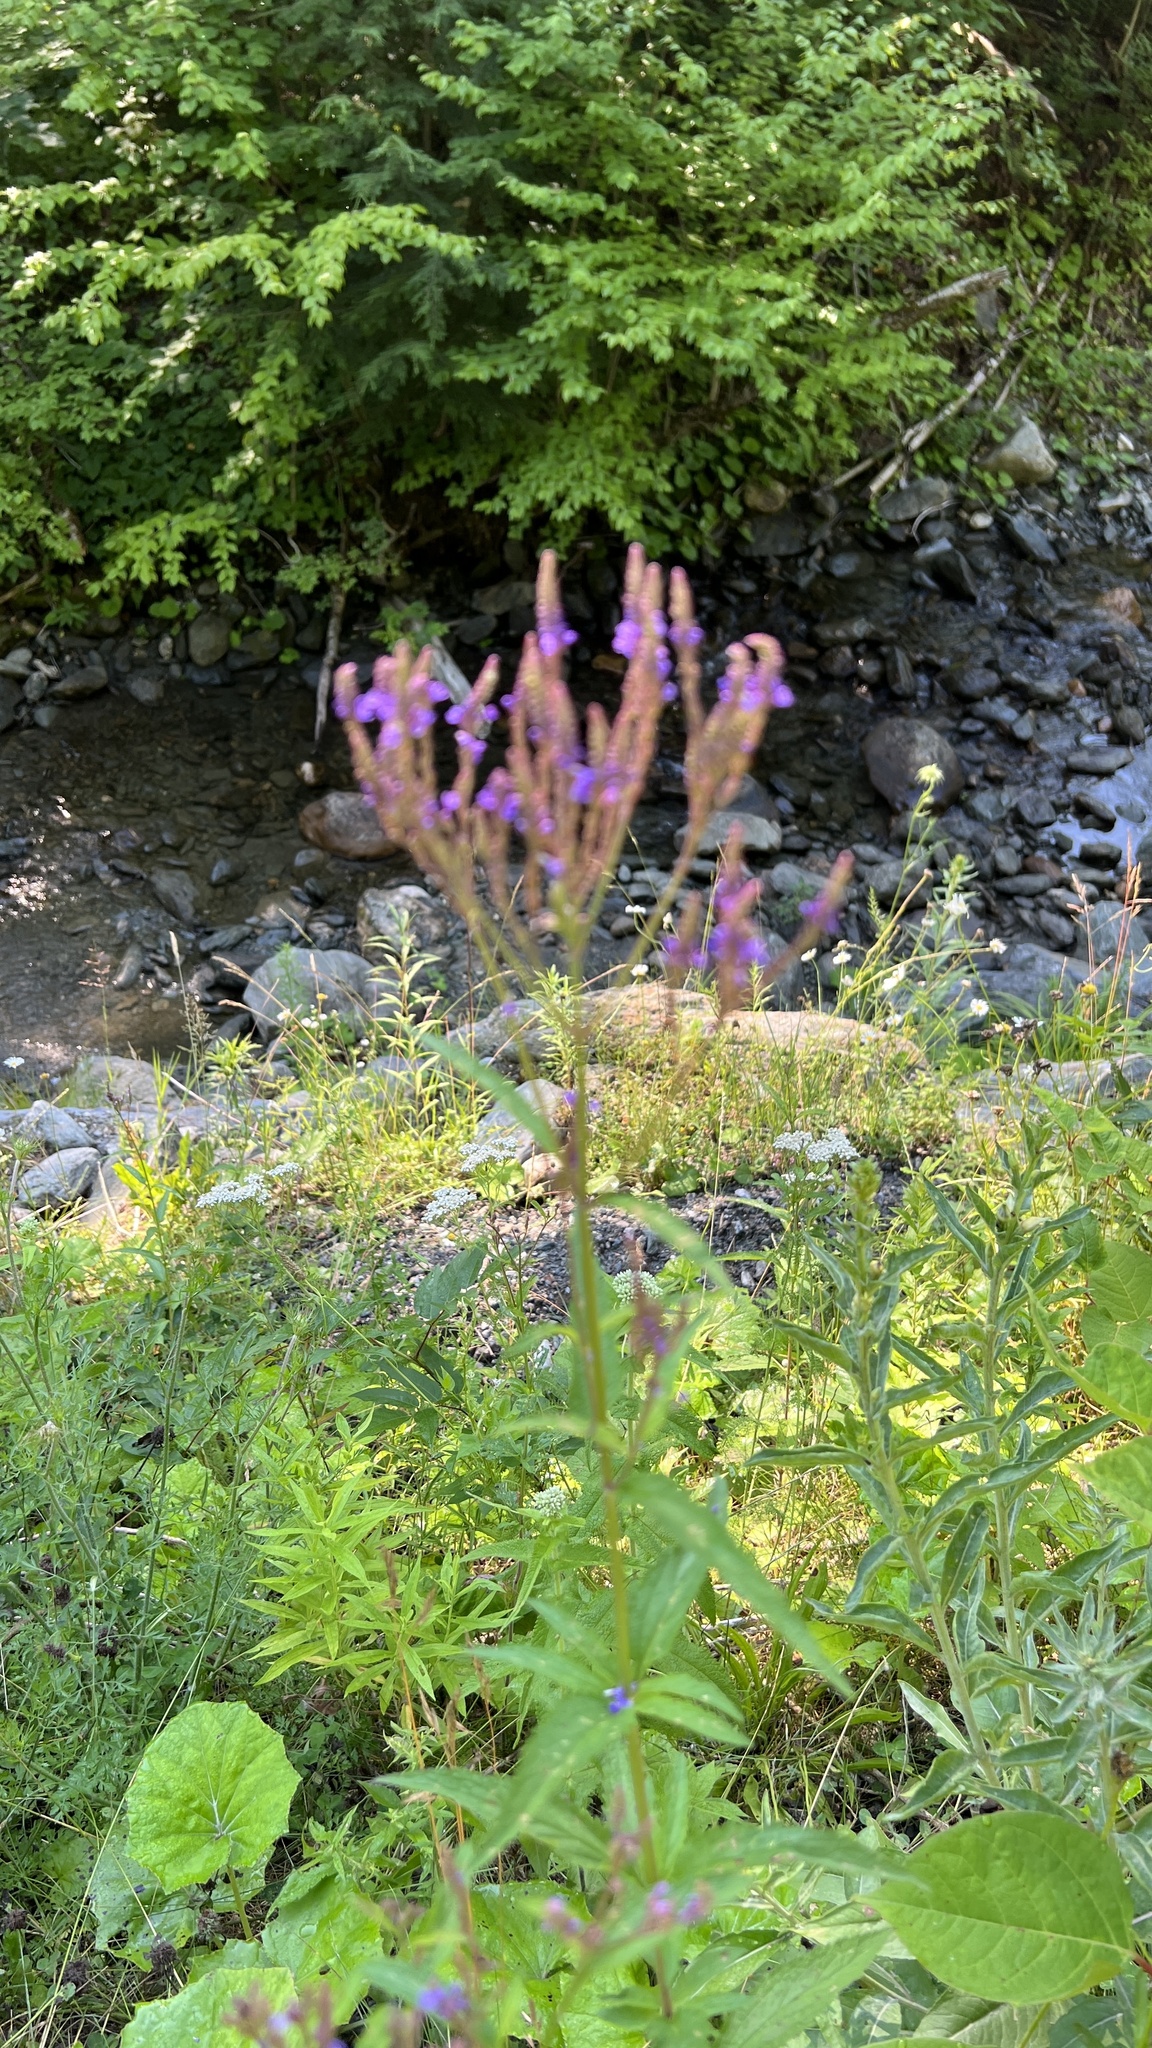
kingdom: Plantae
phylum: Tracheophyta
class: Magnoliopsida
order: Lamiales
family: Verbenaceae
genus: Verbena
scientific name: Verbena hastata
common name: American blue vervain
